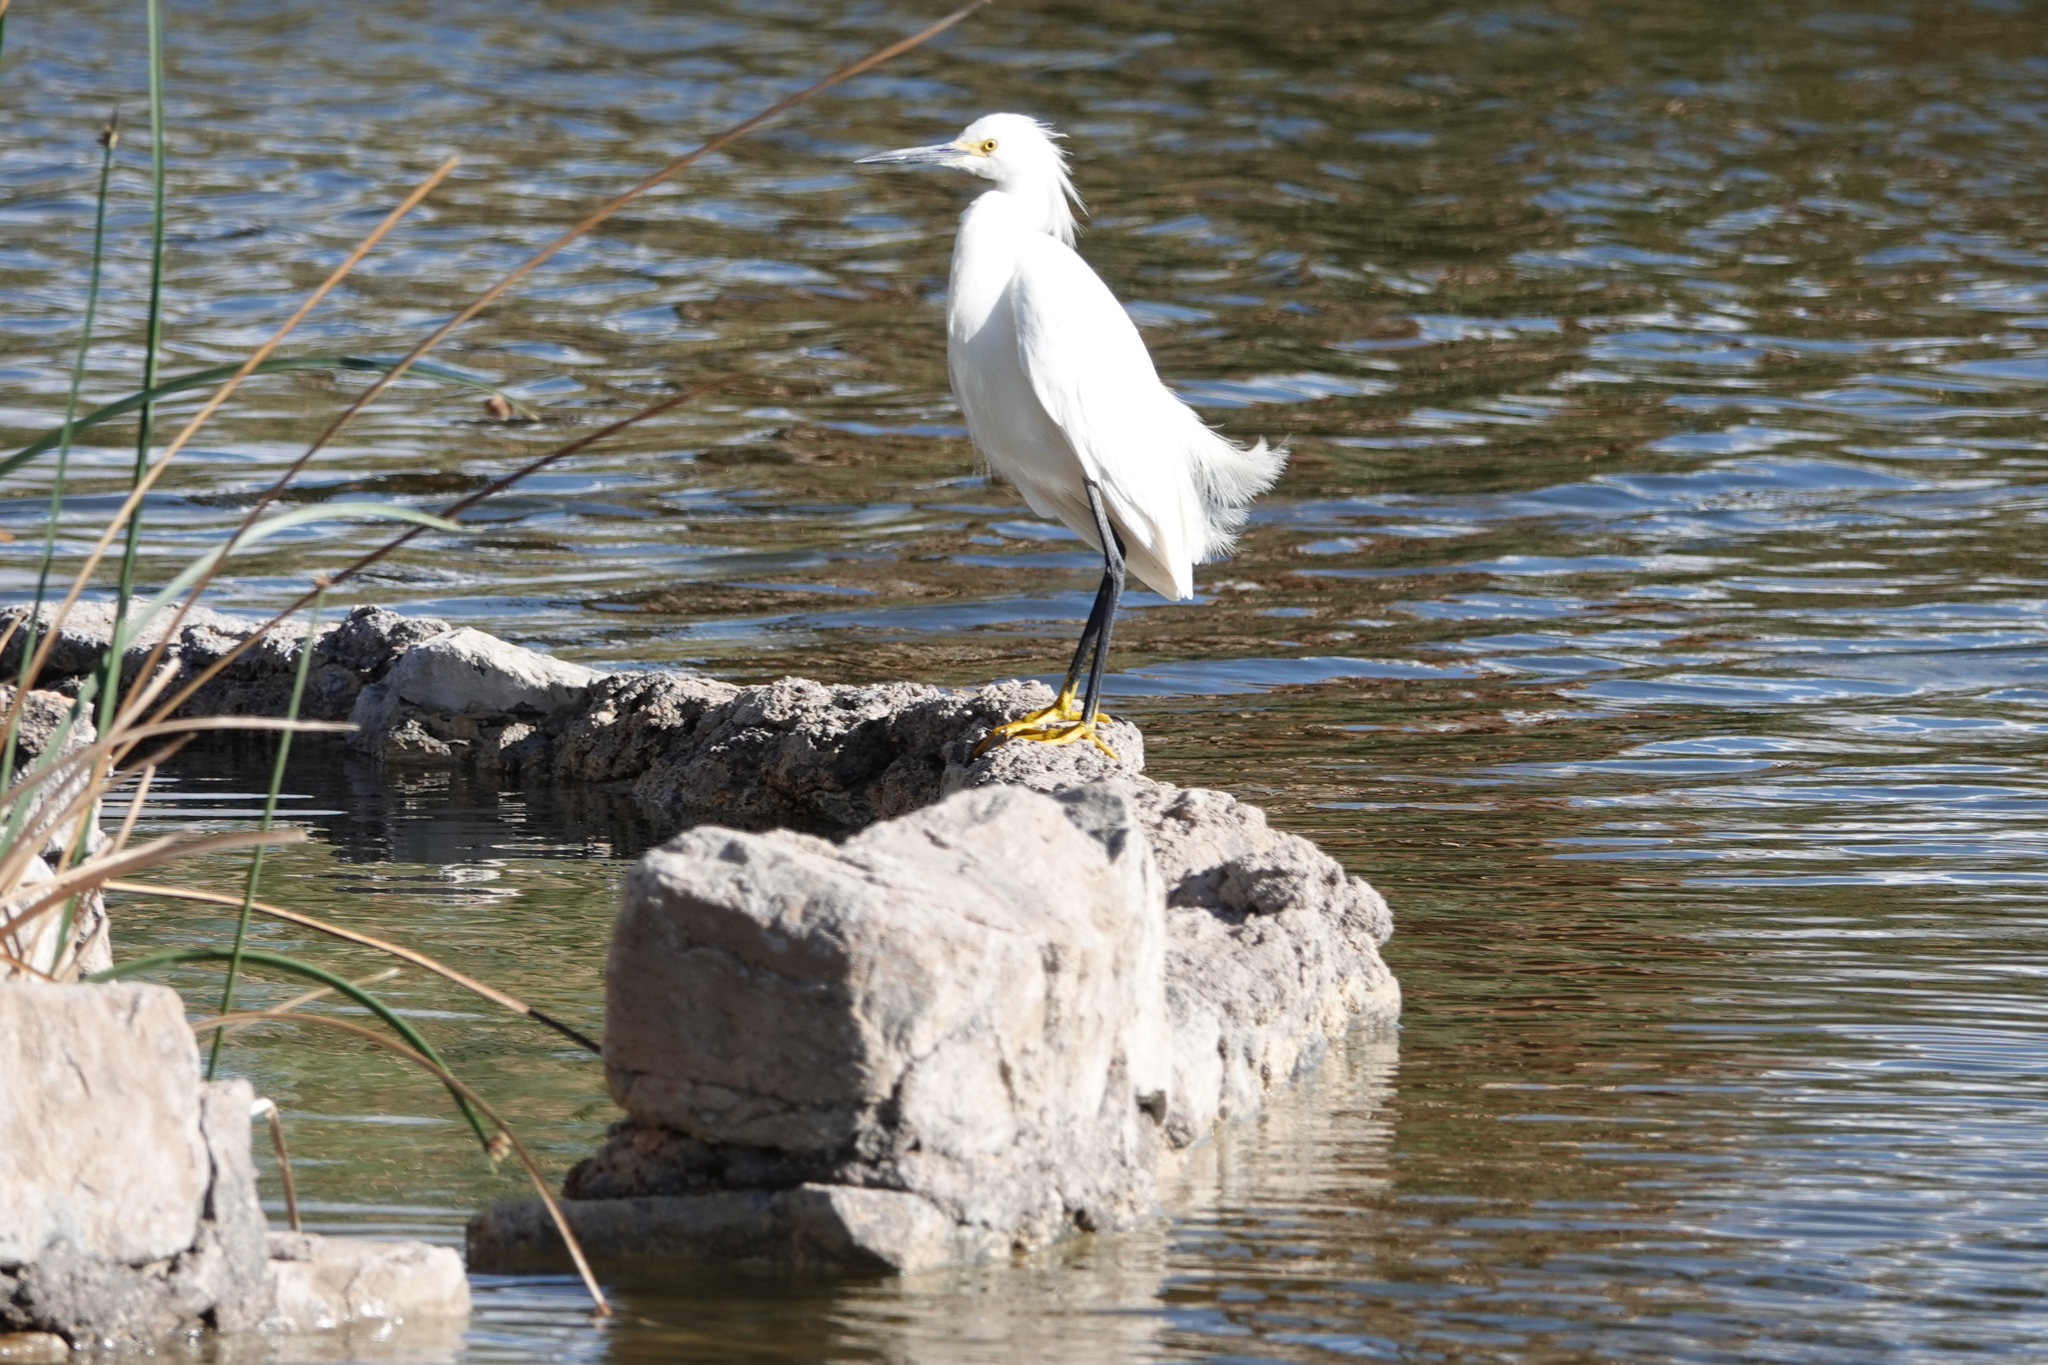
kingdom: Animalia
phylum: Chordata
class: Aves
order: Pelecaniformes
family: Ardeidae
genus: Egretta
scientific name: Egretta thula
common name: Snowy egret
